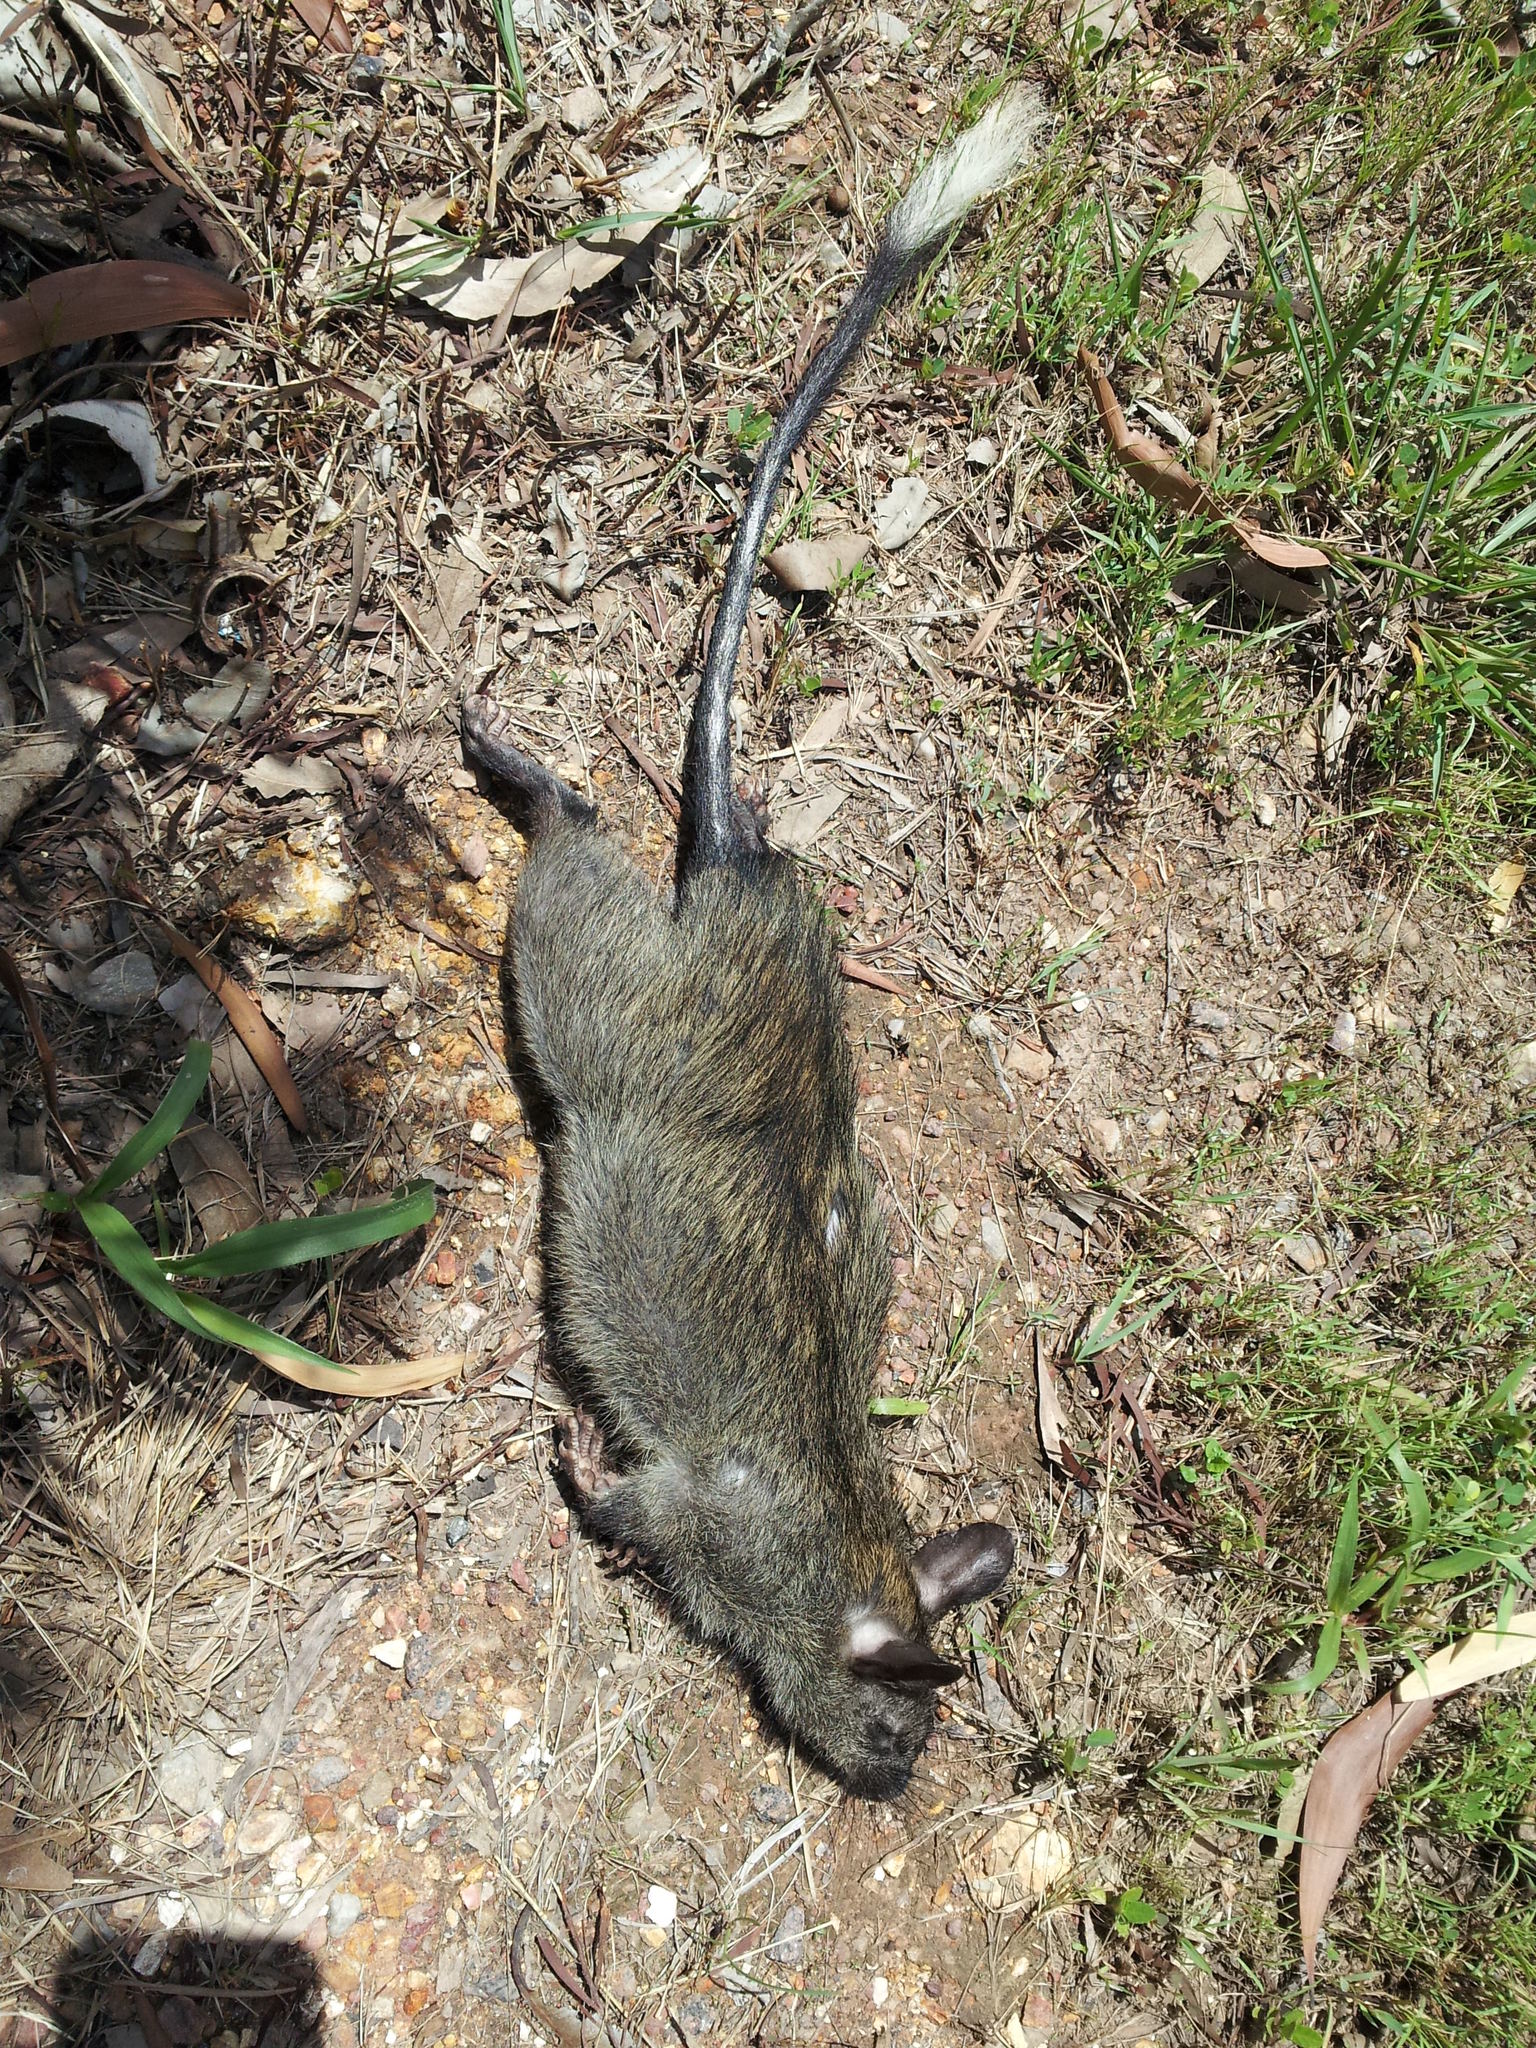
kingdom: Animalia
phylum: Chordata
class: Mammalia
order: Rodentia
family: Muridae
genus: Mesembriomys
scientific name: Mesembriomys gouldii
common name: Black-footed mesembriomys
